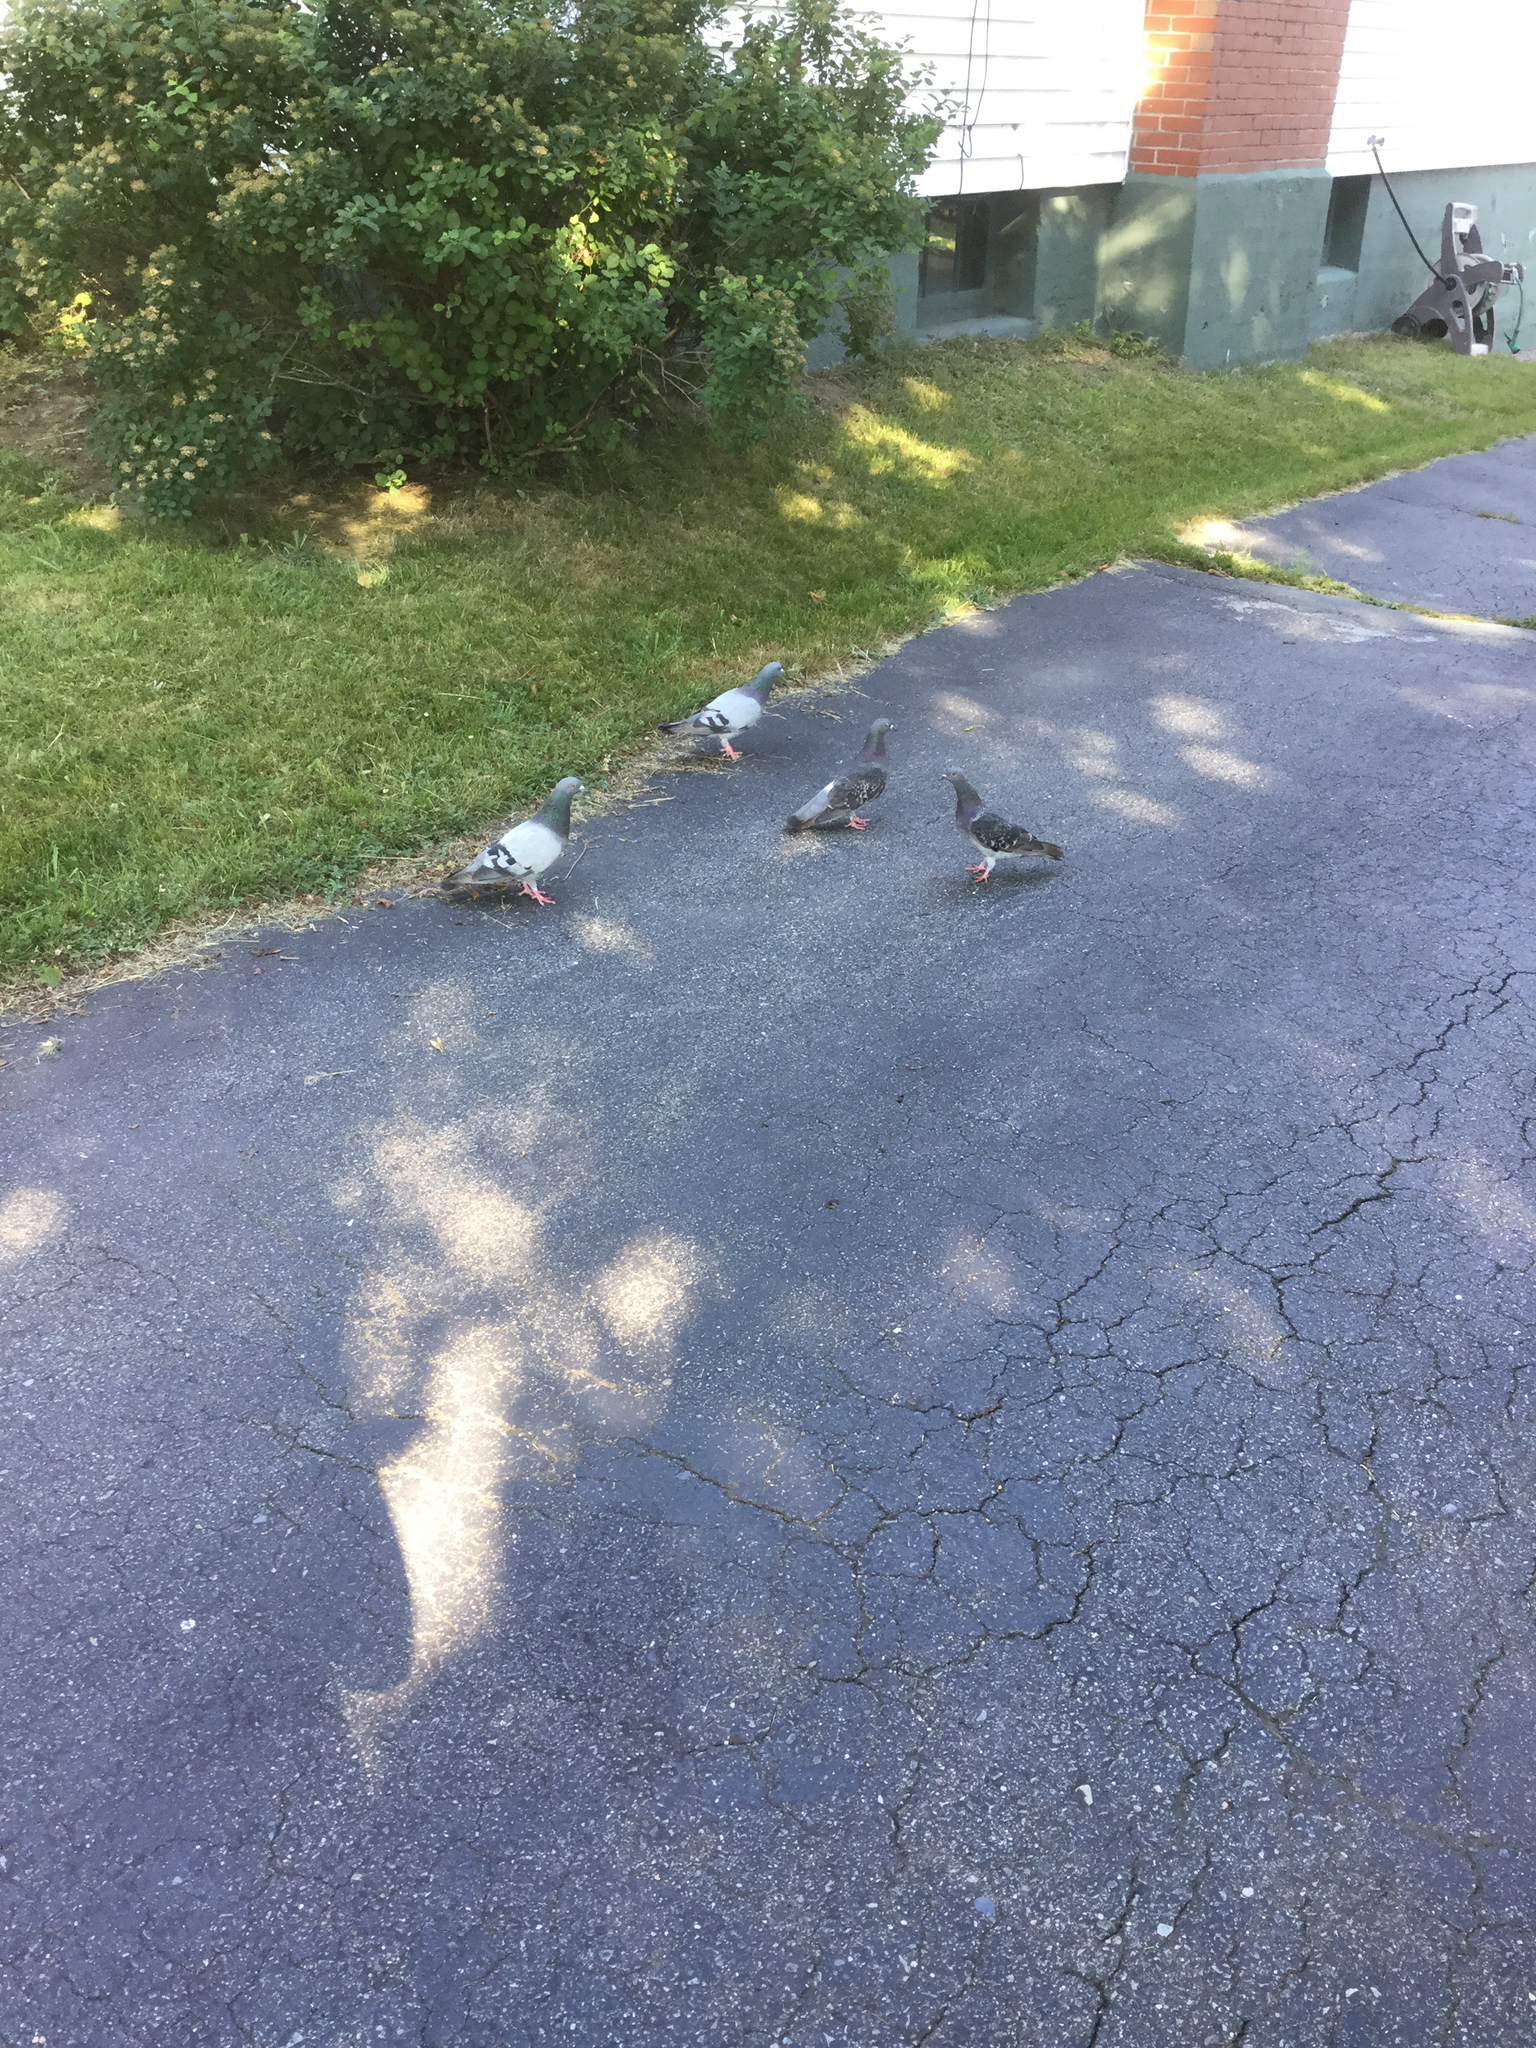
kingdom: Animalia
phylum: Chordata
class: Aves
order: Columbiformes
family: Columbidae
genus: Columba
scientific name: Columba livia
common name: Rock pigeon
